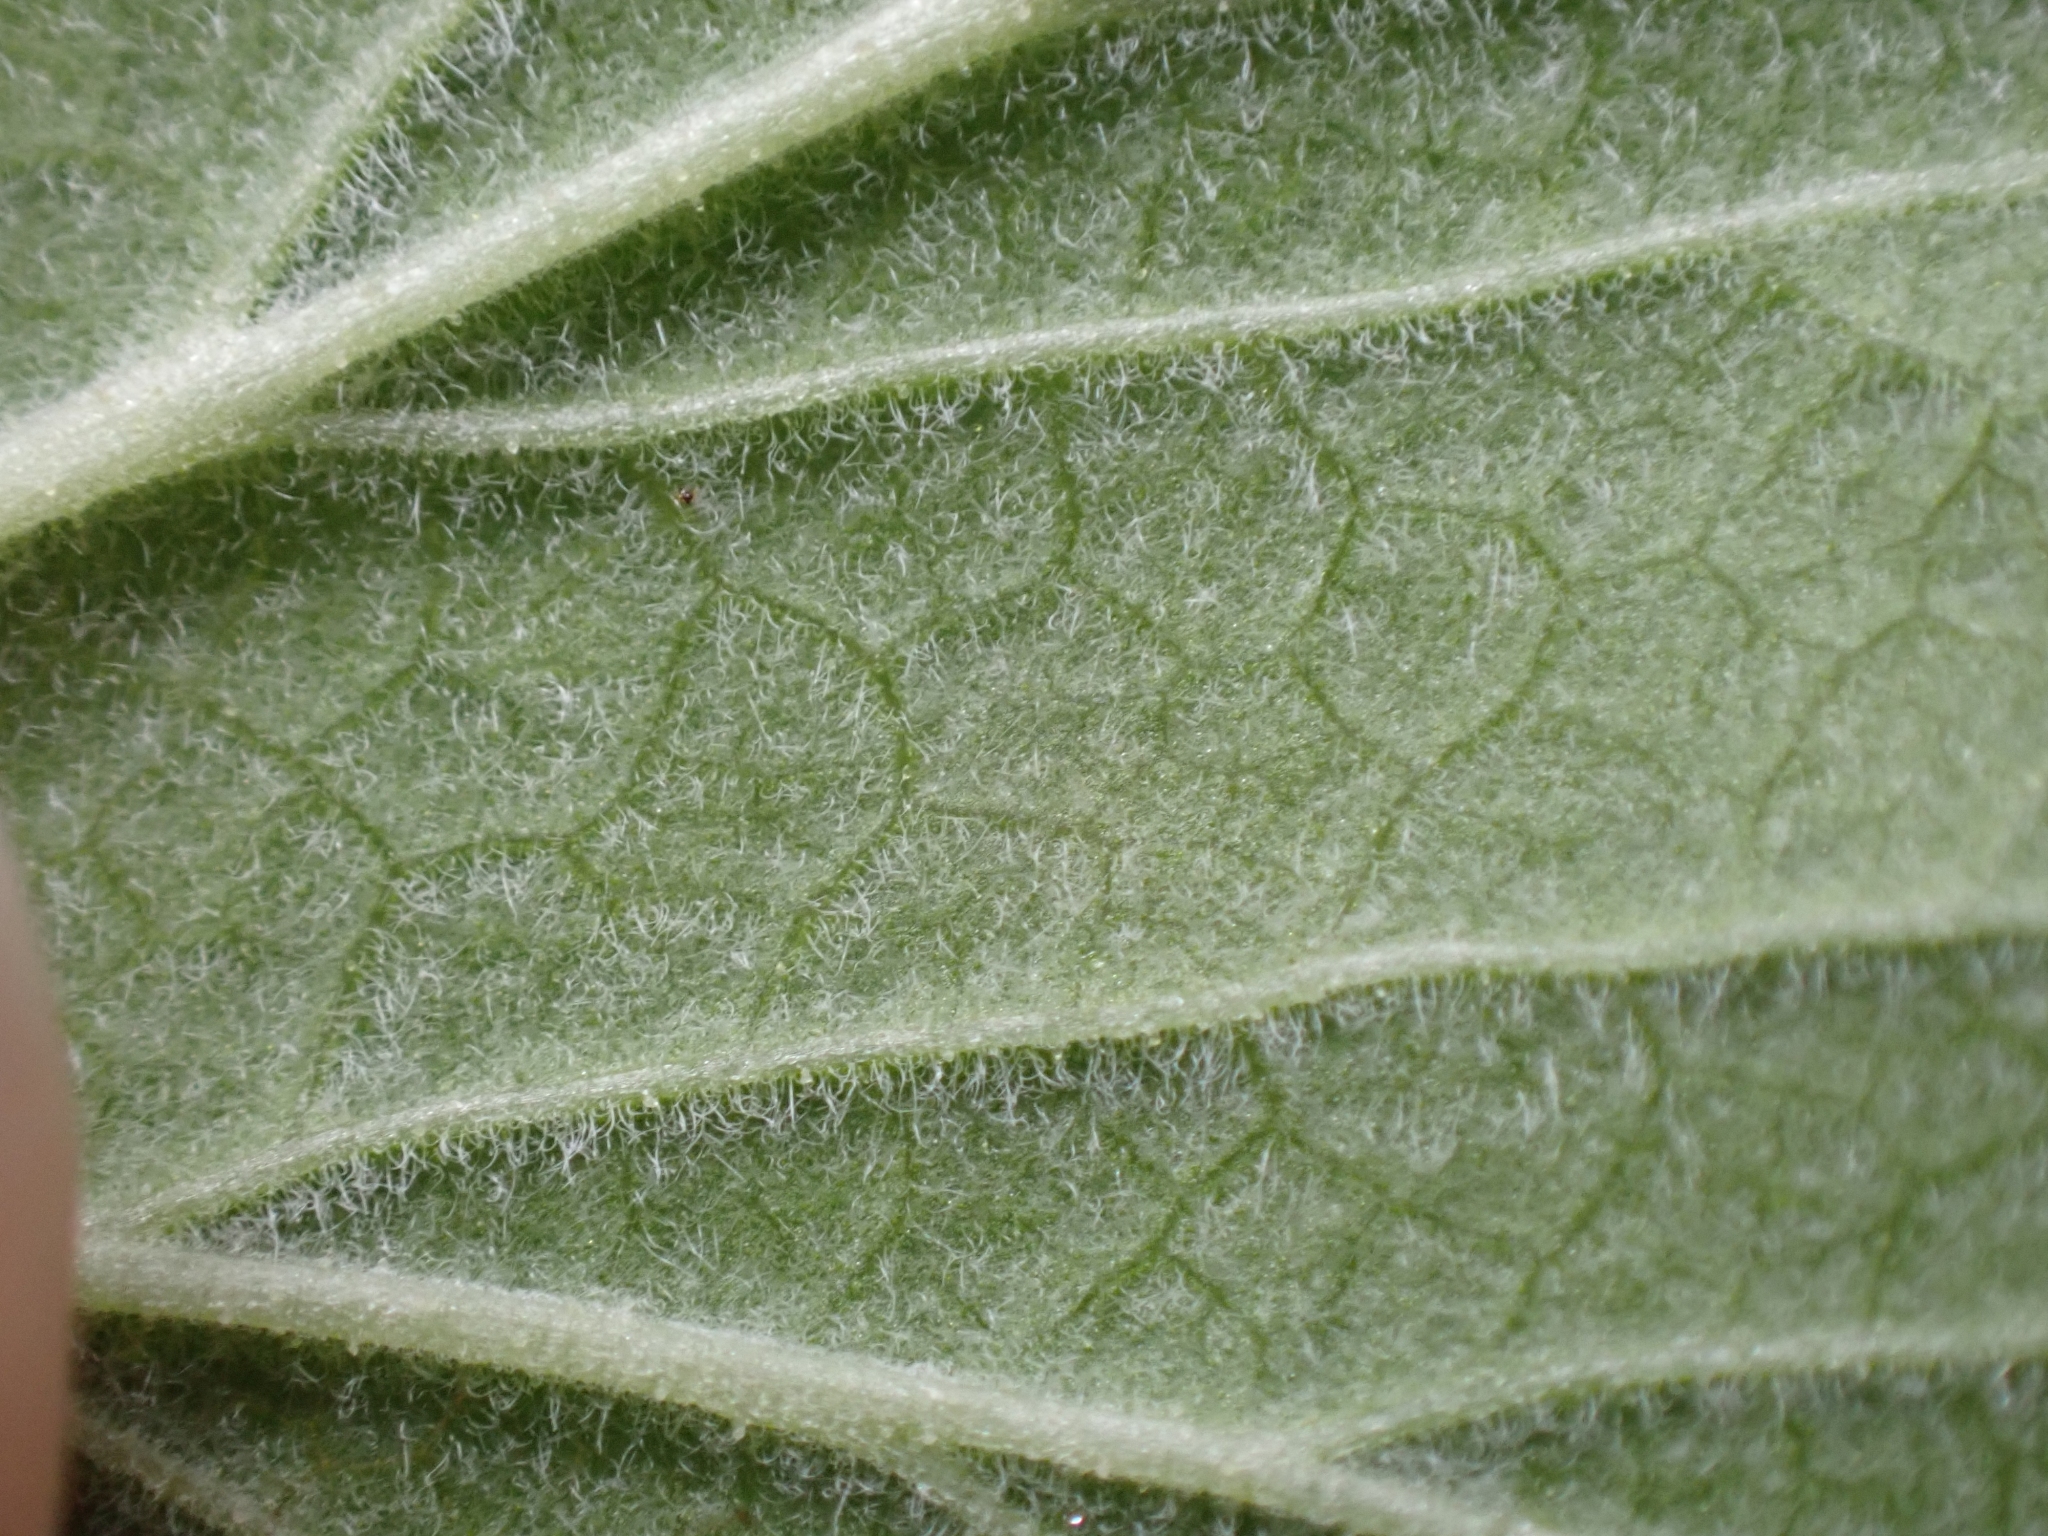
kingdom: Plantae
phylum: Tracheophyta
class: Magnoliopsida
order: Saxifragales
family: Grossulariaceae
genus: Ribes
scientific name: Ribes sanguineum
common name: Flowering currant
